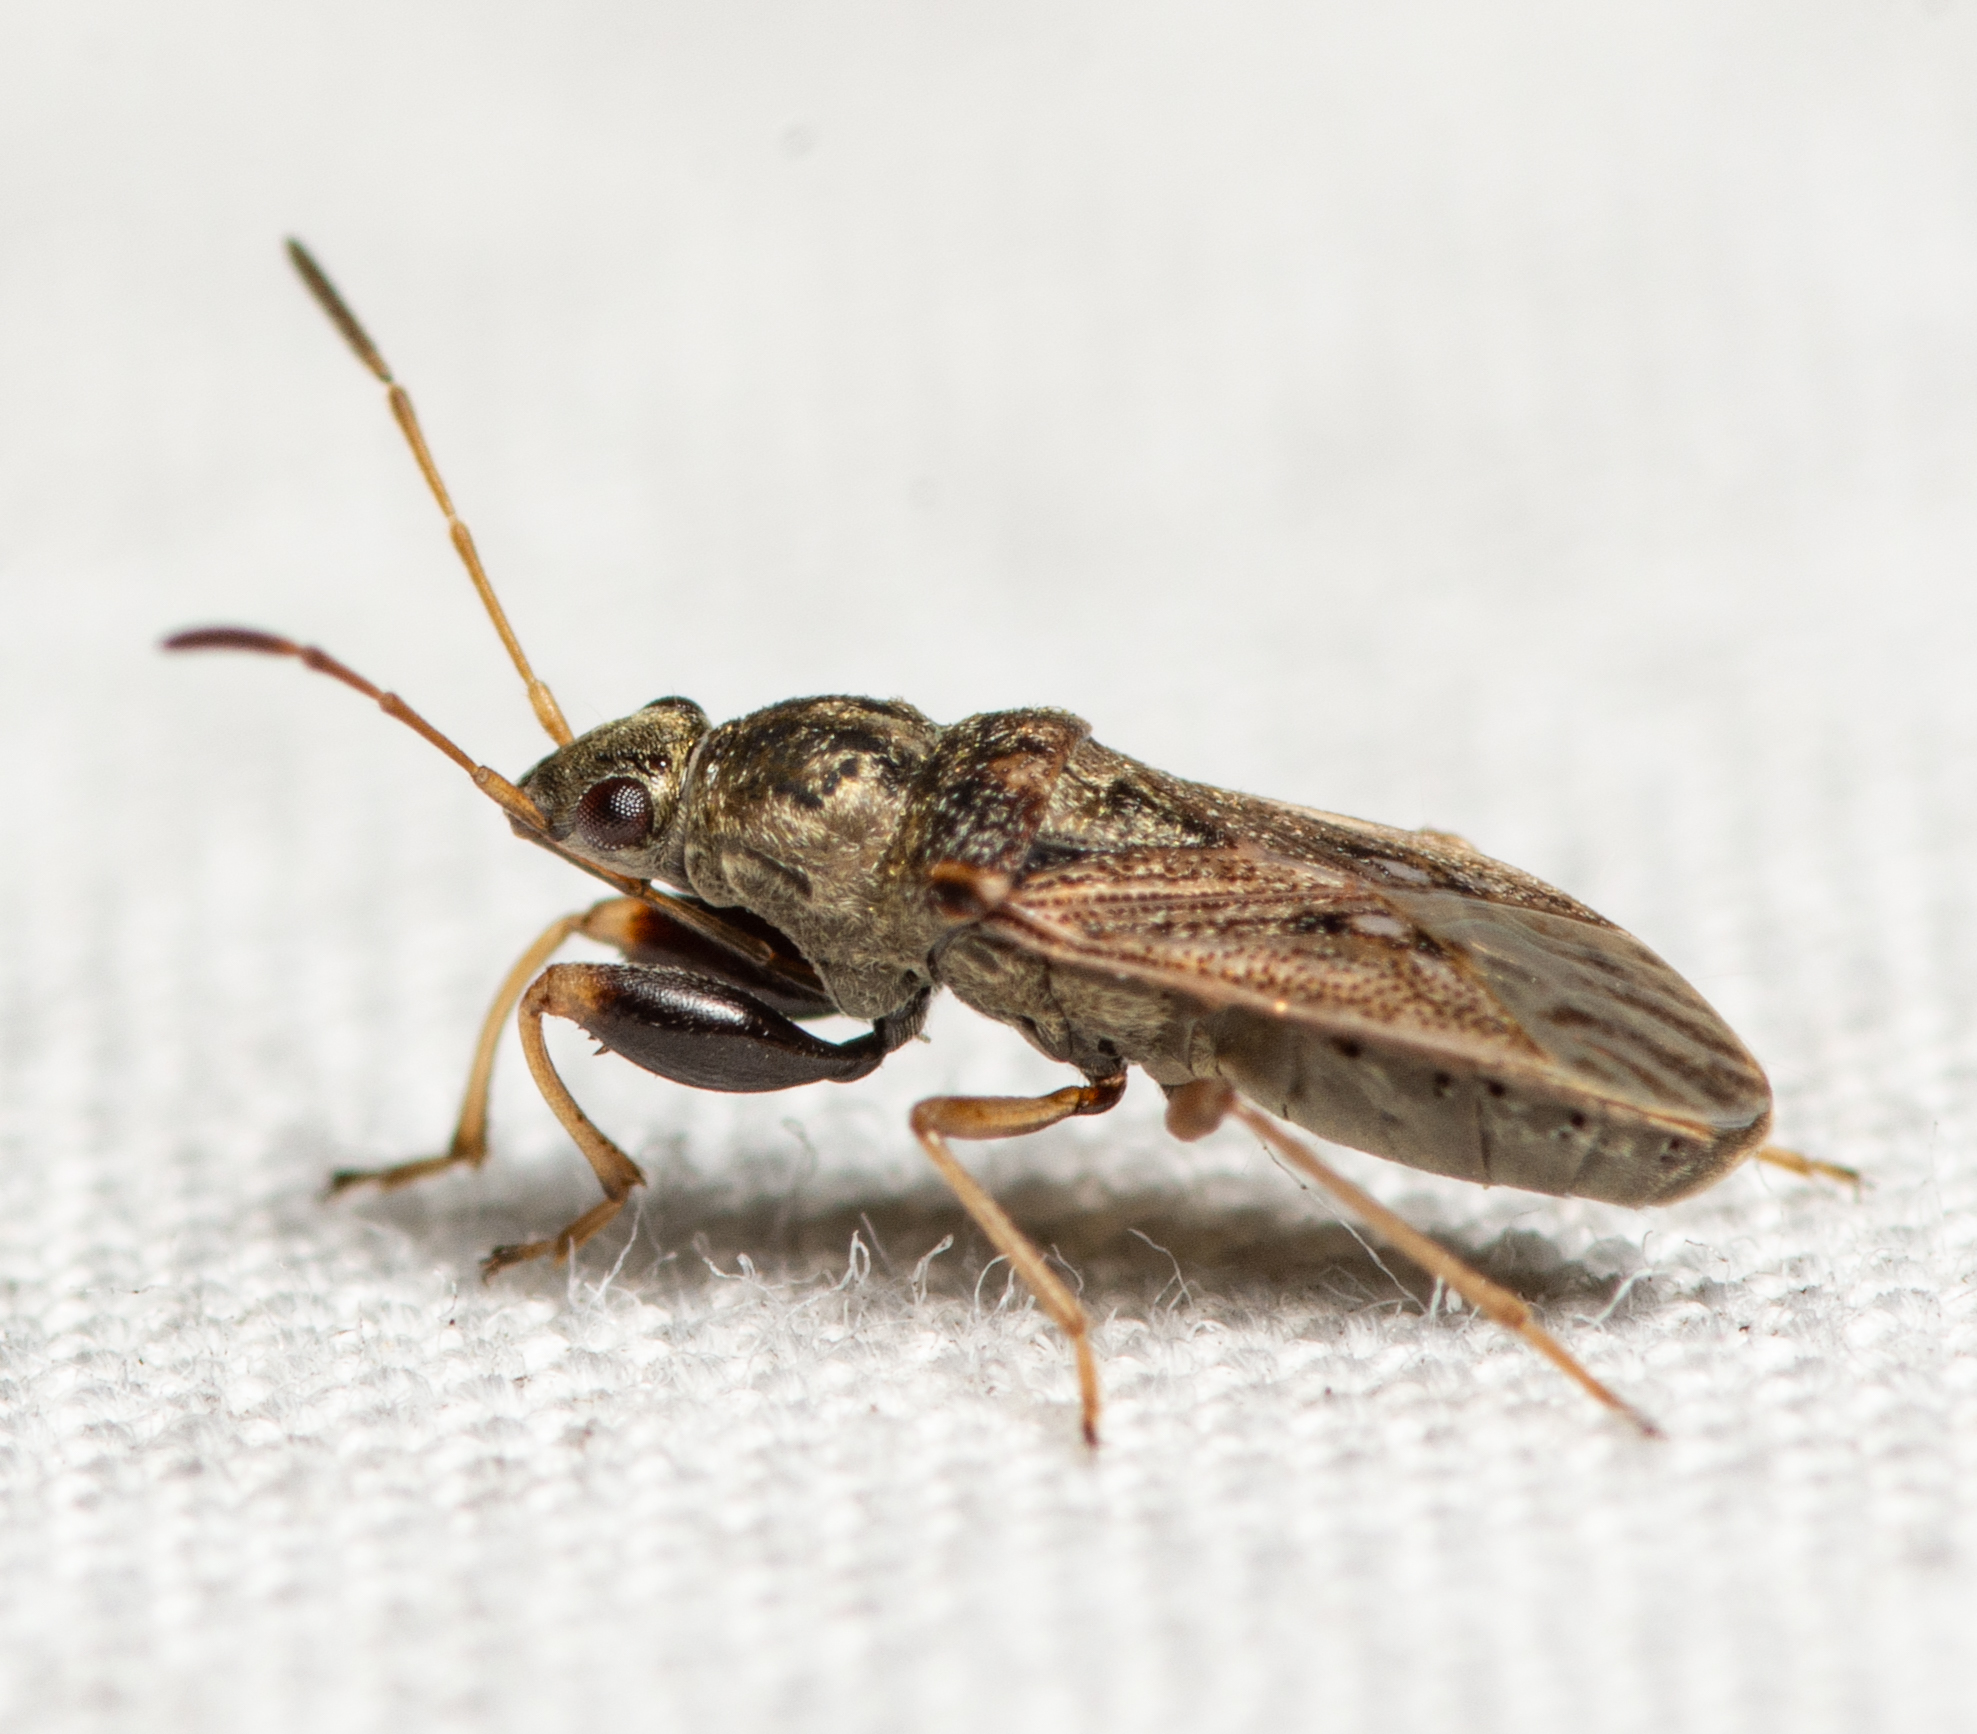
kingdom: Animalia
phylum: Arthropoda
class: Insecta
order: Hemiptera
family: Rhyparochromidae
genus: Pseudopachybrachius
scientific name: Pseudopachybrachius basalis
